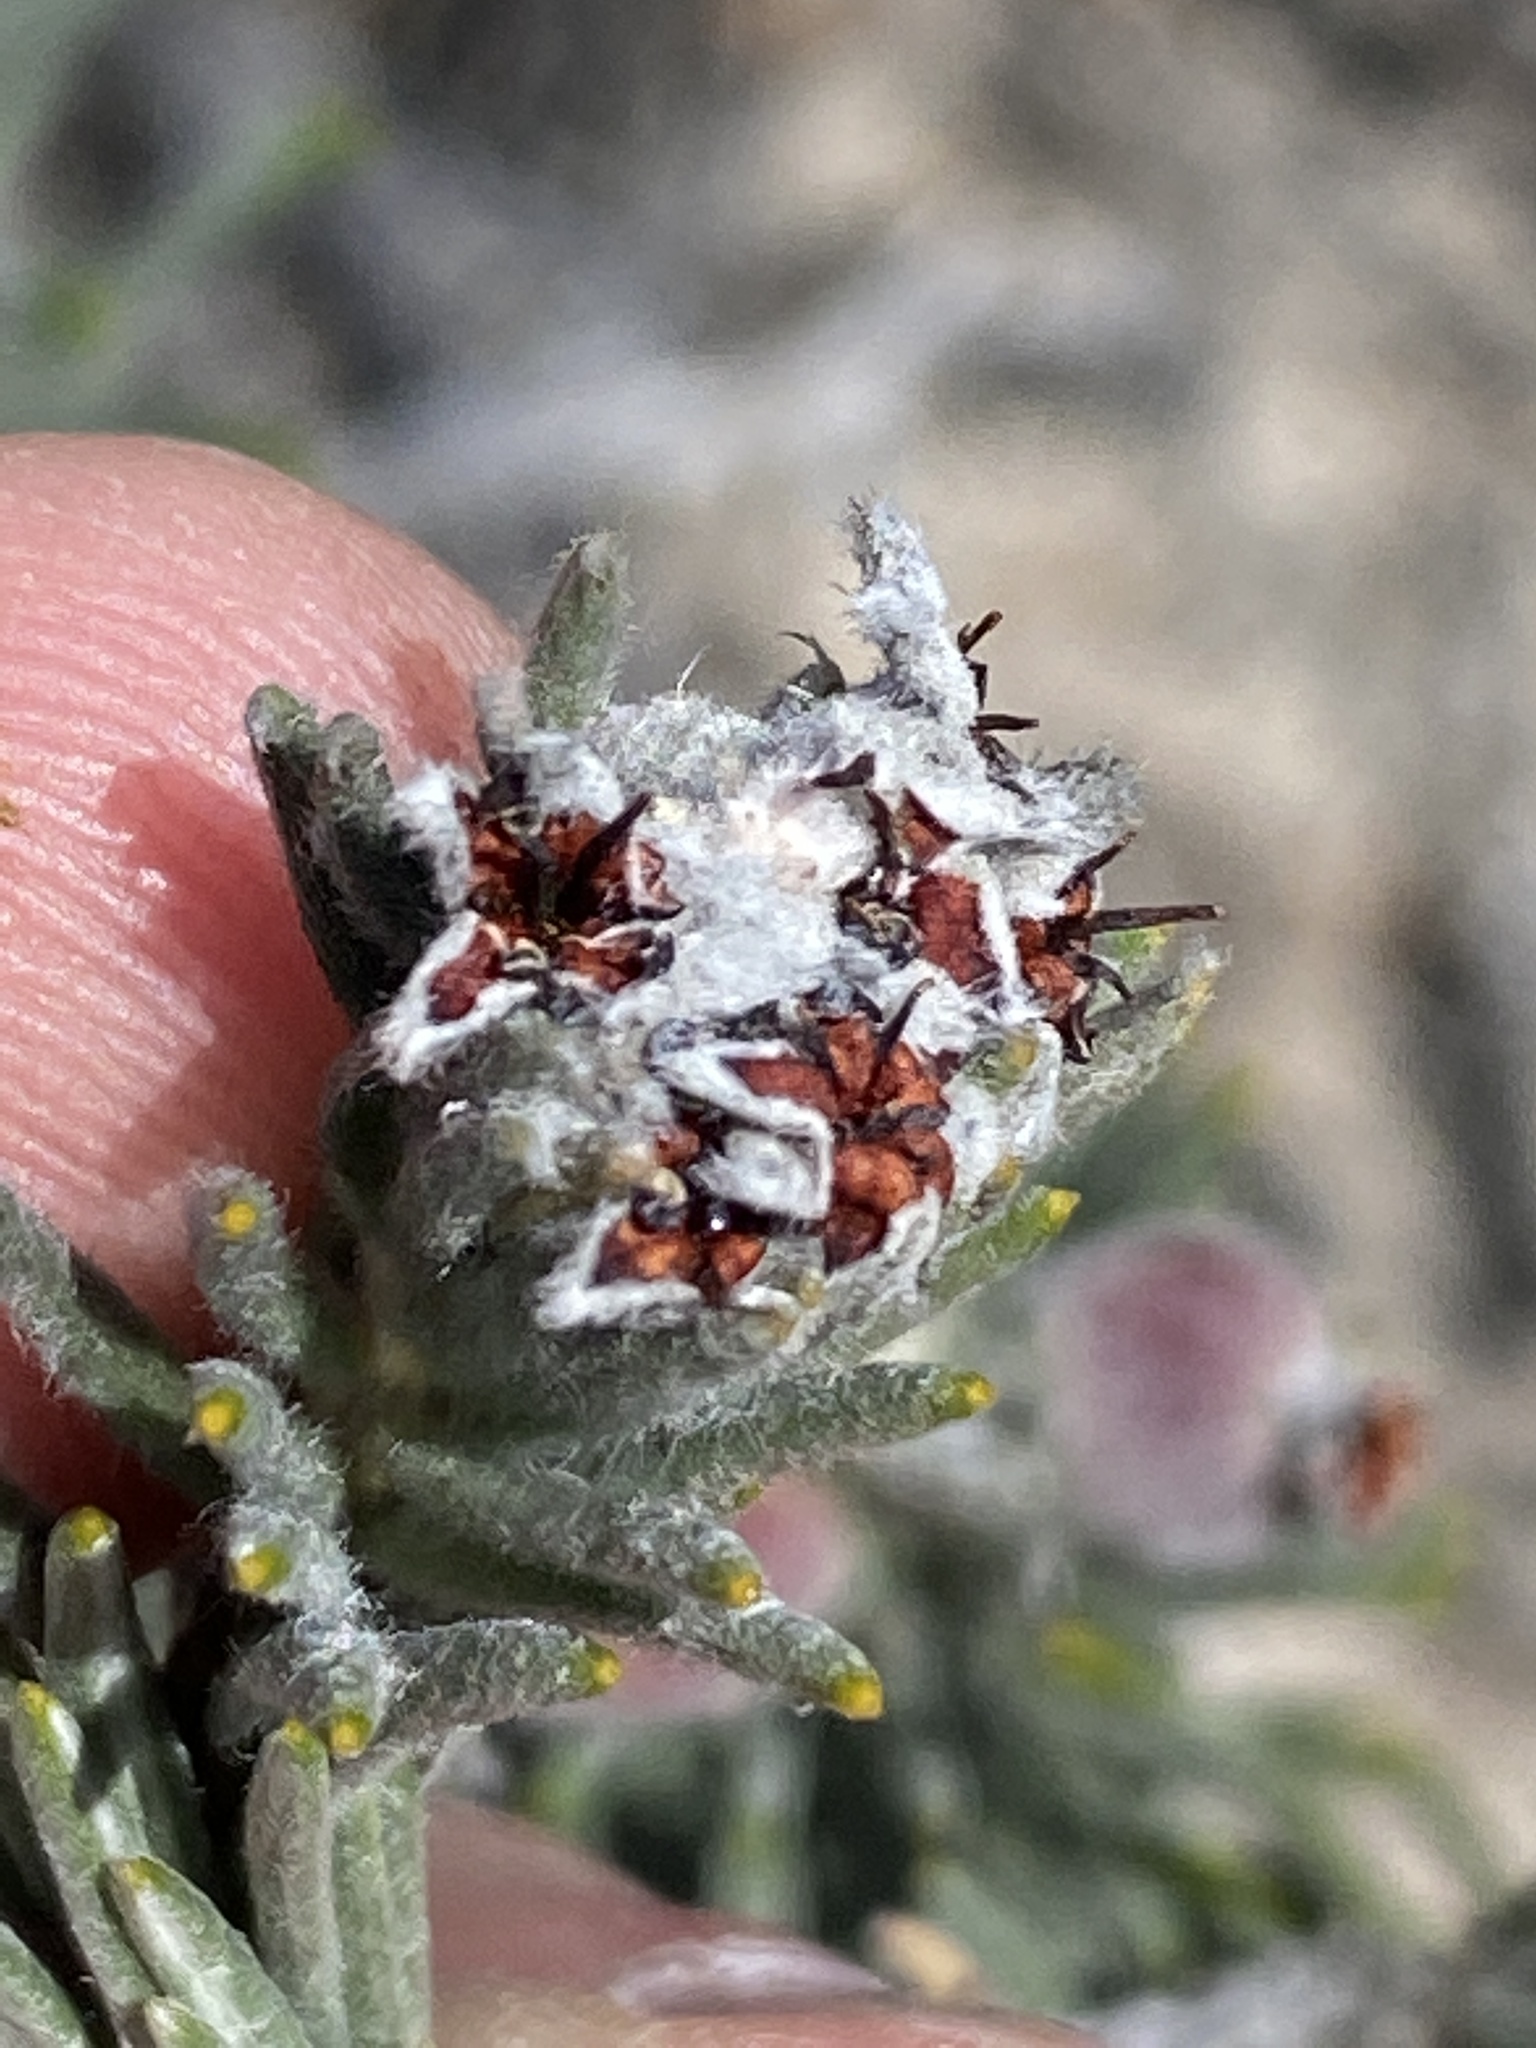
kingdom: Plantae
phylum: Tracheophyta
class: Magnoliopsida
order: Rosales
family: Rhamnaceae
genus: Phylica
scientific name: Phylica willdenowiana
